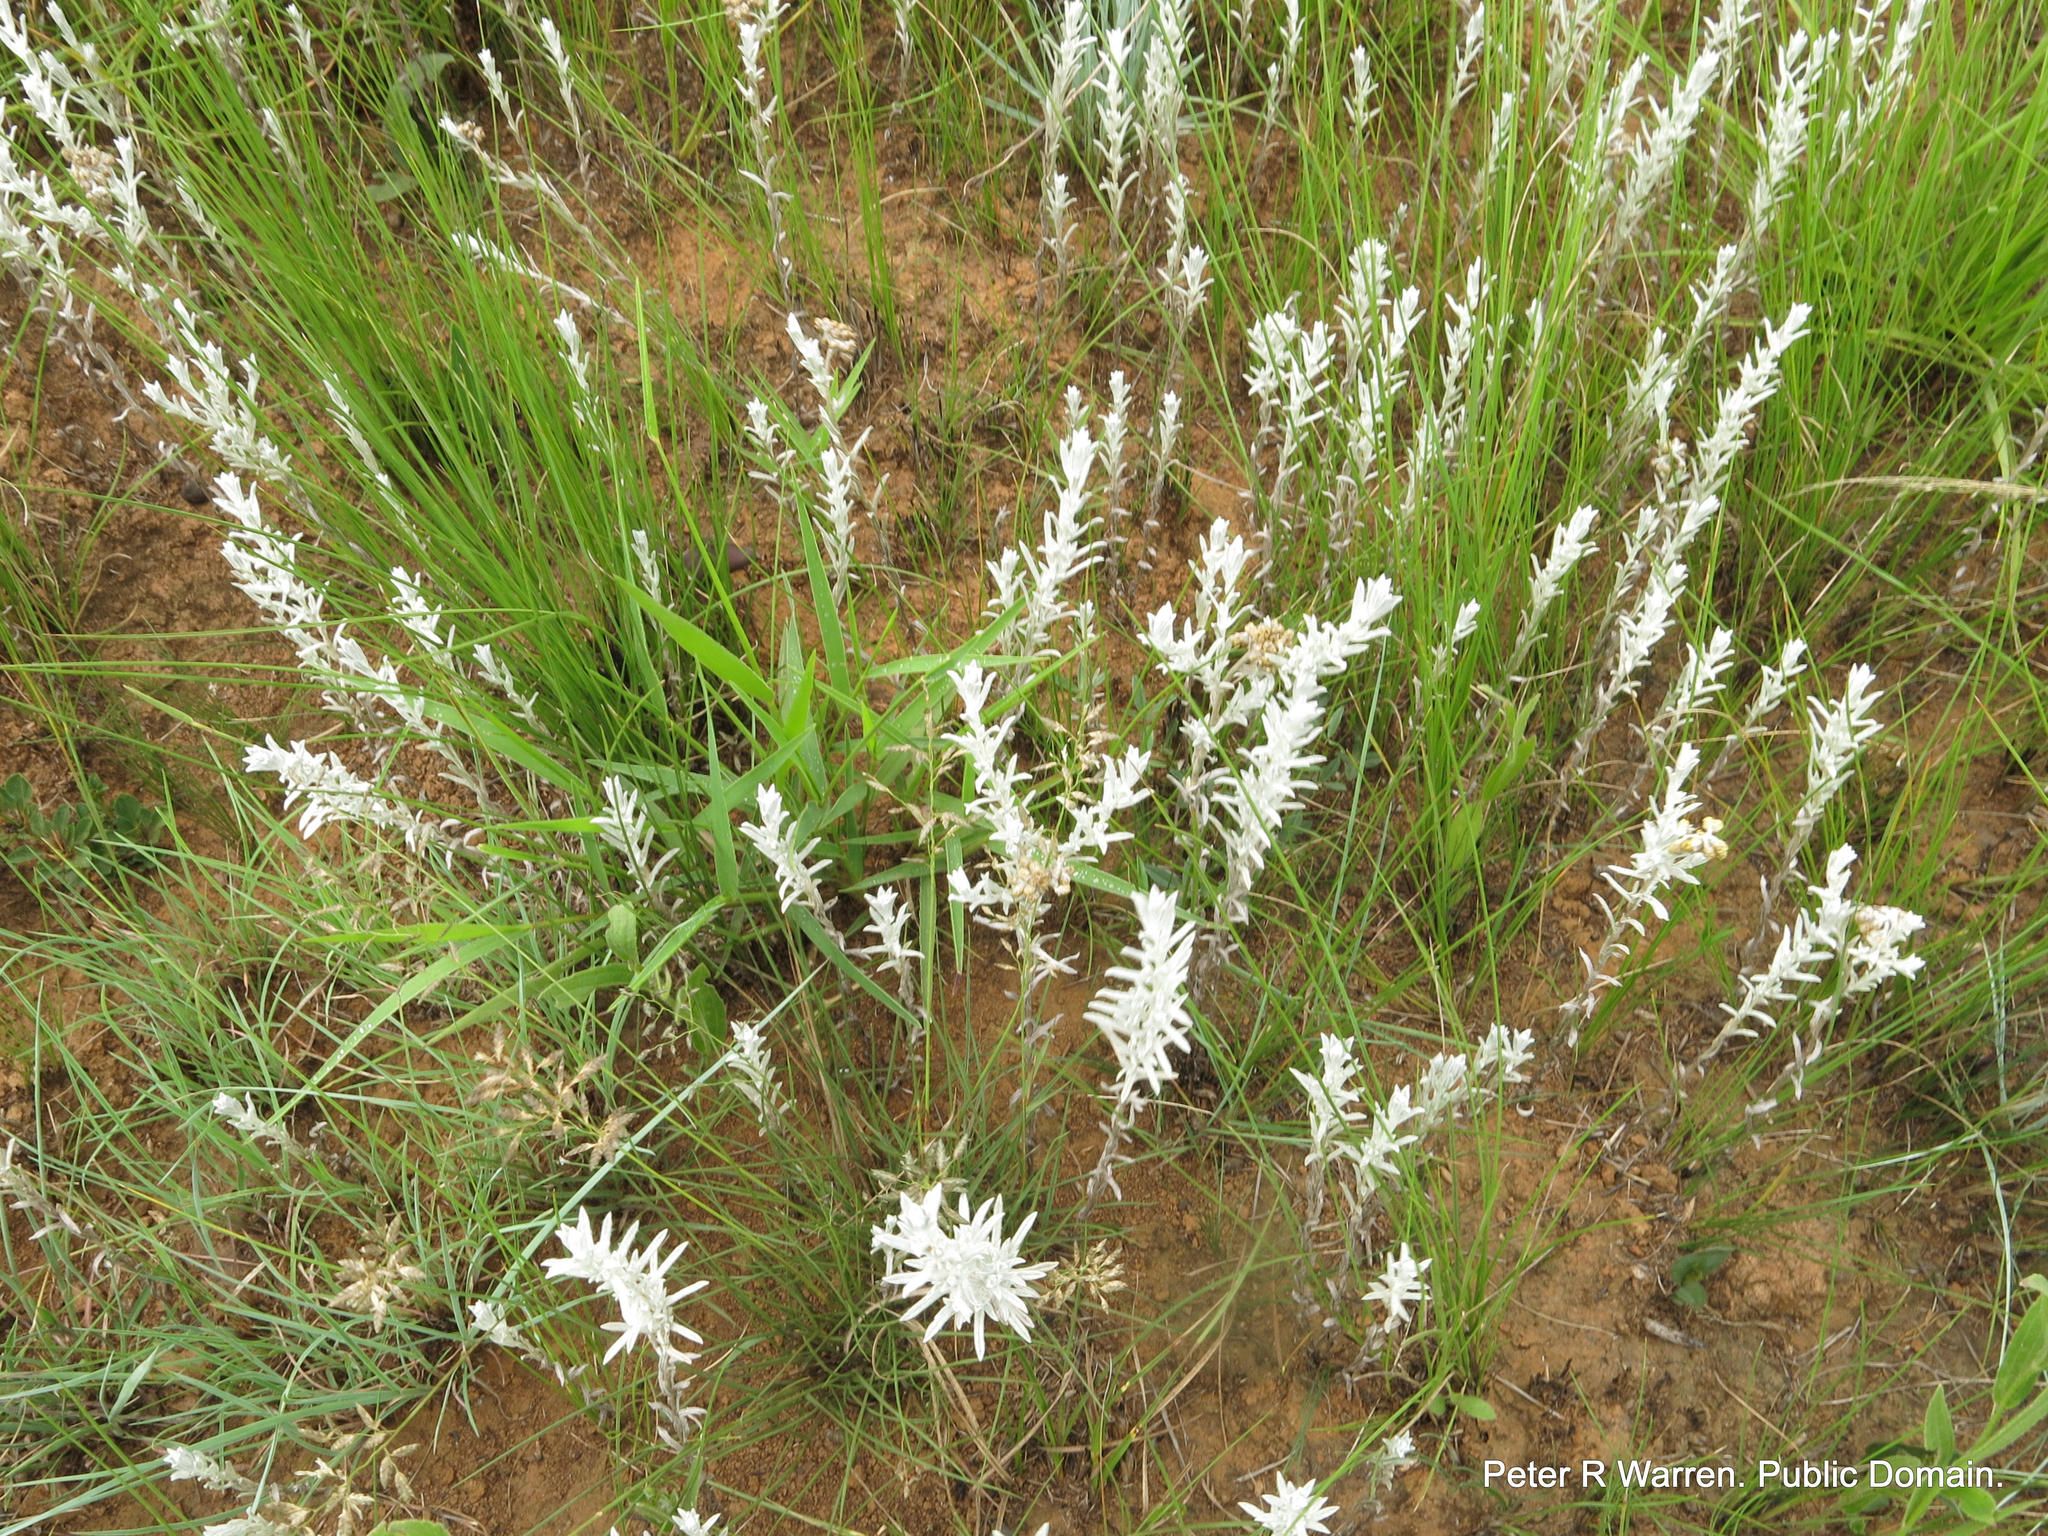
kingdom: Plantae
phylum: Tracheophyta
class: Magnoliopsida
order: Asterales
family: Asteraceae
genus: Helichrysum
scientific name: Helichrysum aureonitens
